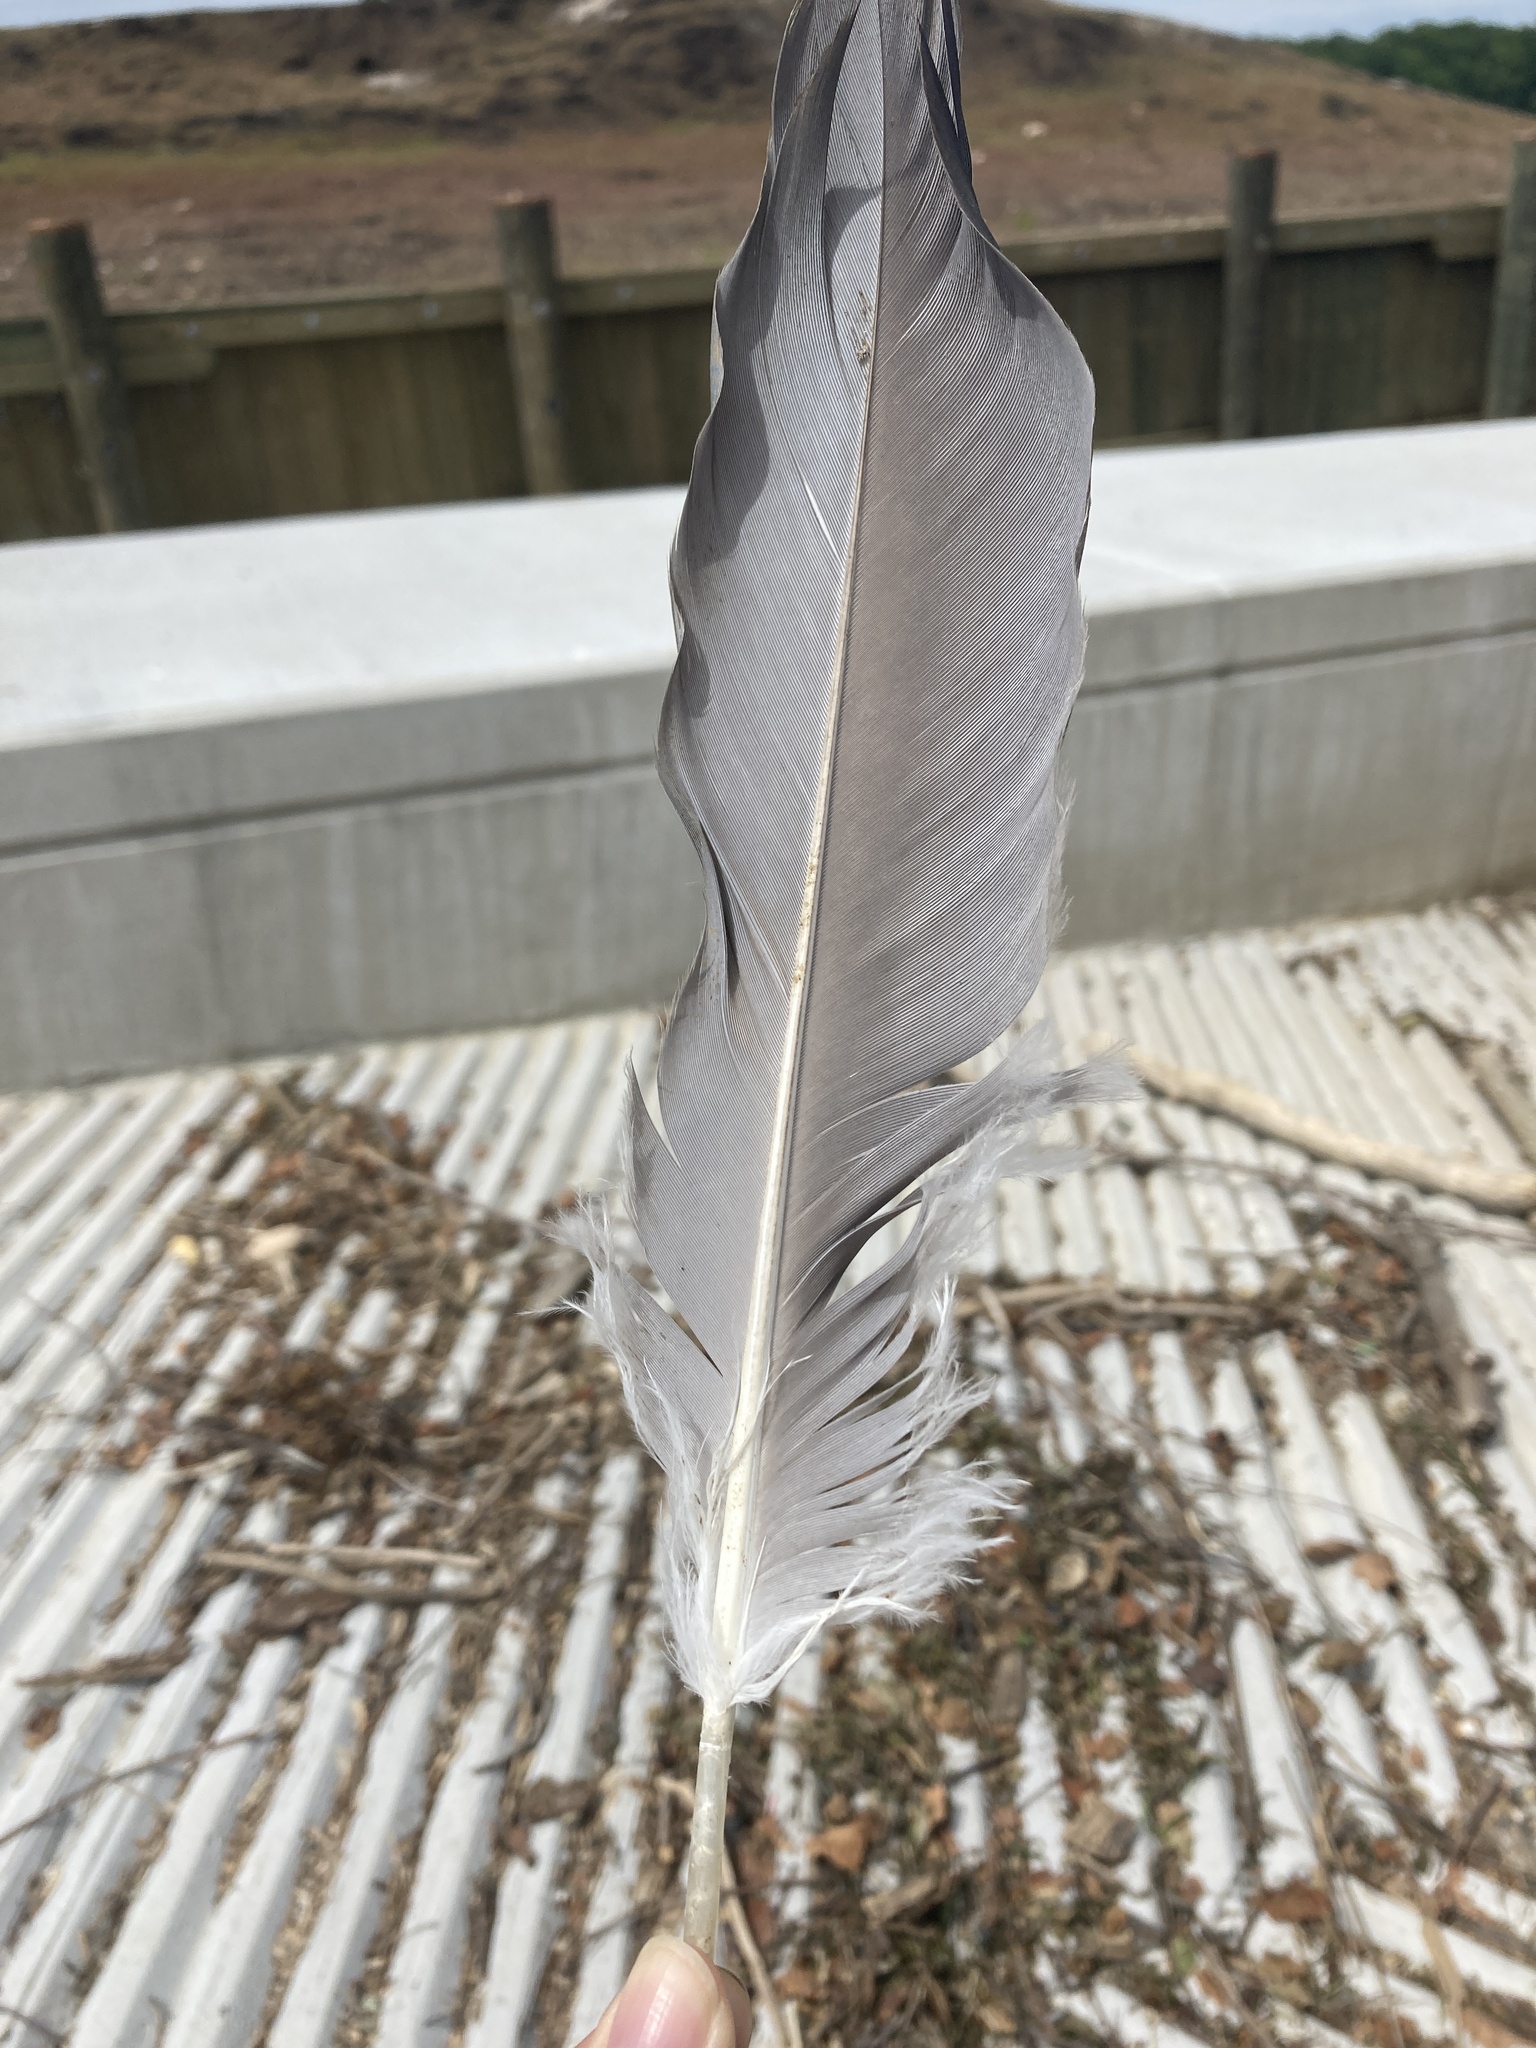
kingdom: Animalia
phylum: Chordata
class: Aves
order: Pelecaniformes
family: Ardeidae
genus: Ardea
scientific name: Ardea herodias
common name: Great blue heron
